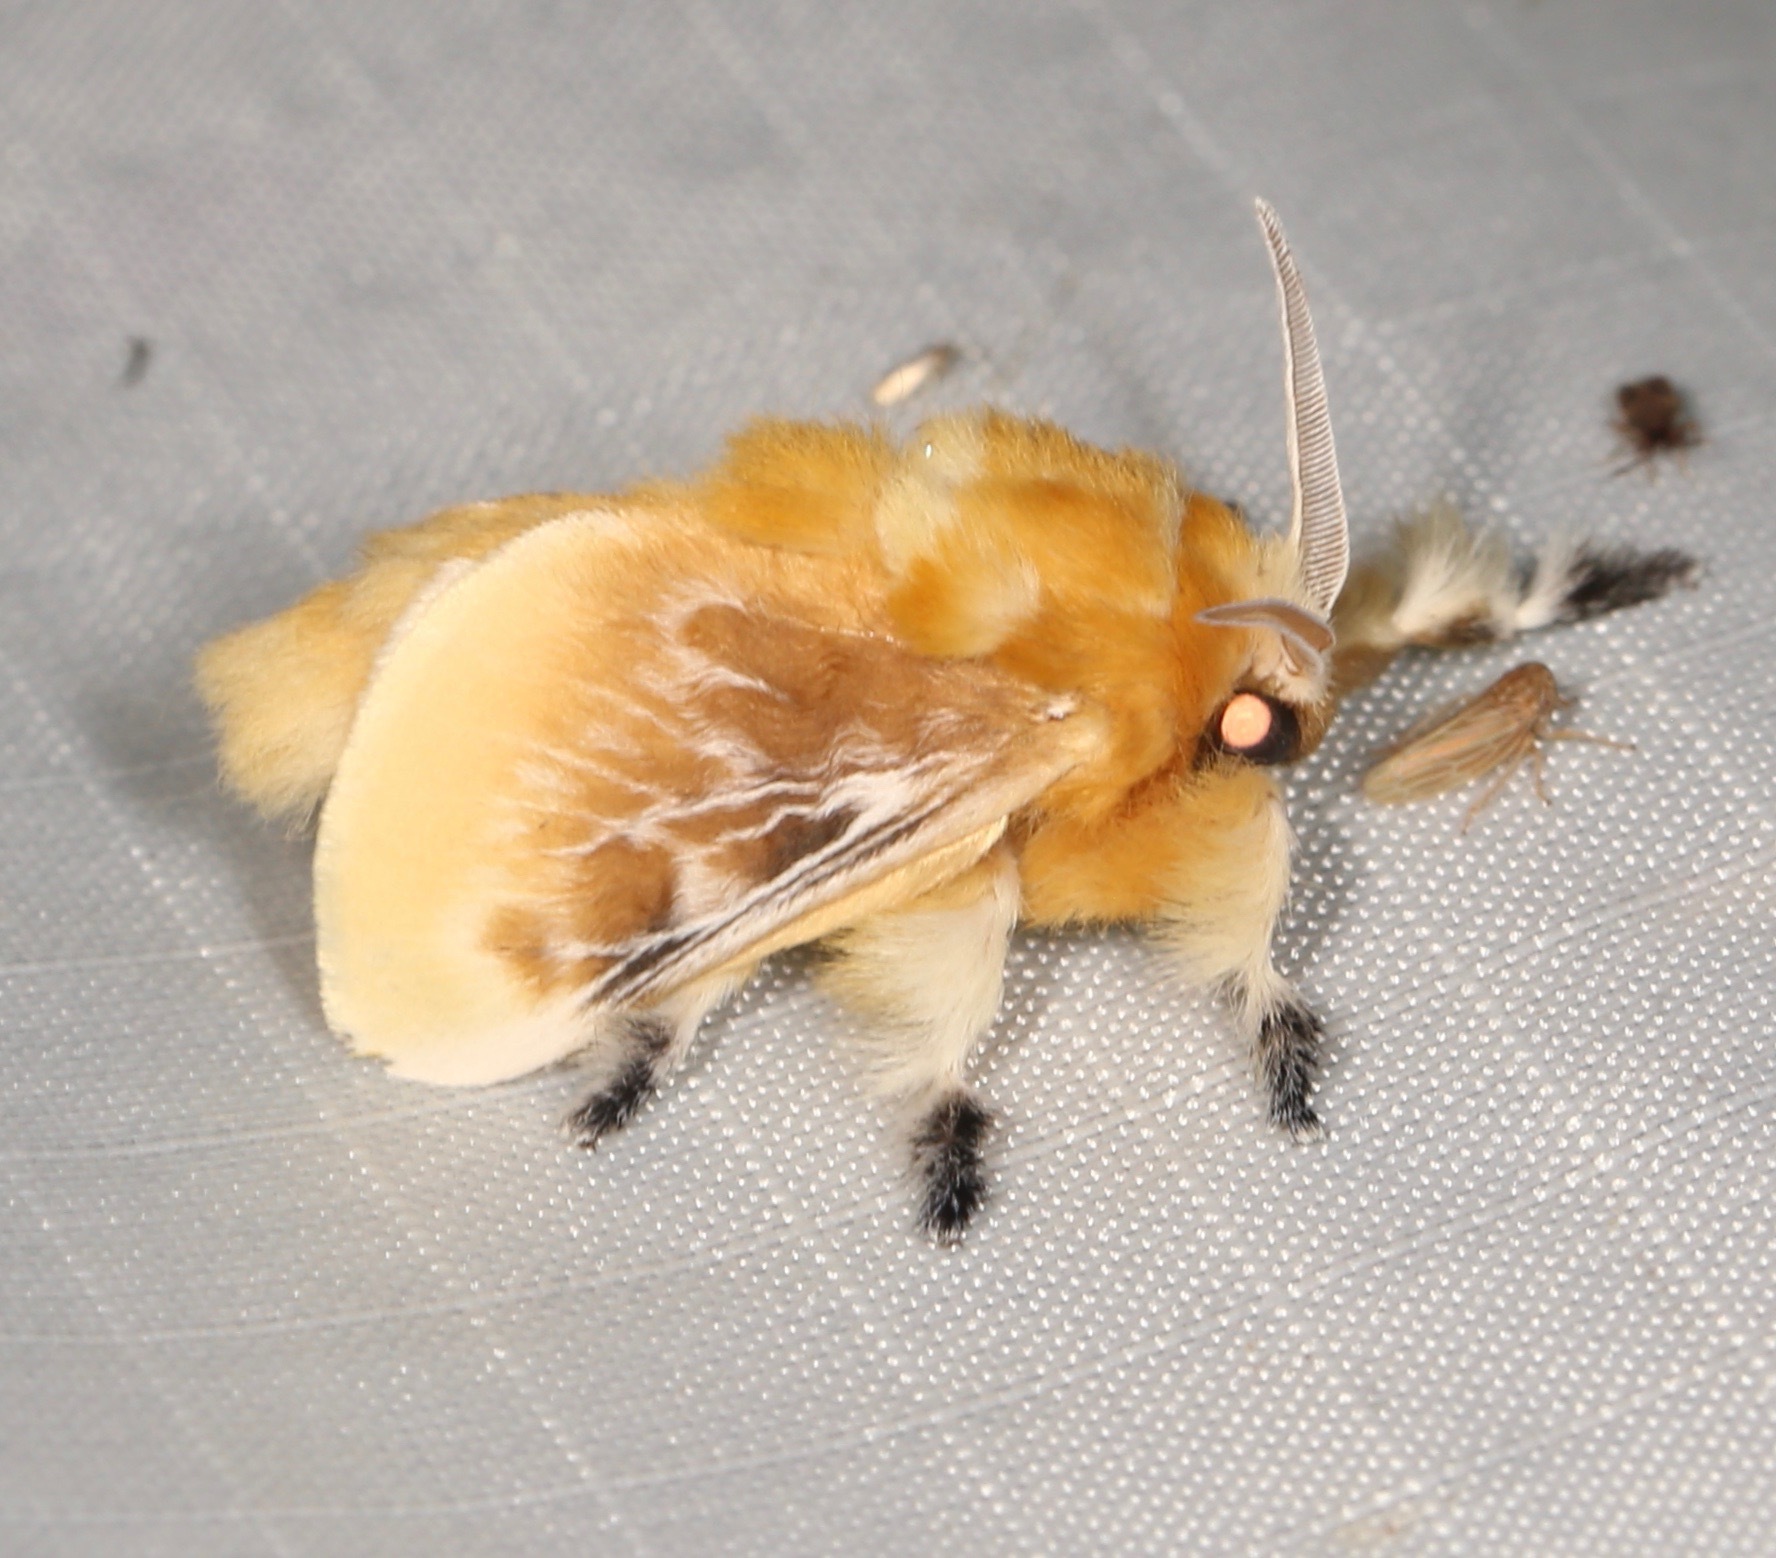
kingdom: Animalia
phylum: Arthropoda
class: Insecta
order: Lepidoptera
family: Megalopygidae
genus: Megalopyge
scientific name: Megalopyge opercularis
